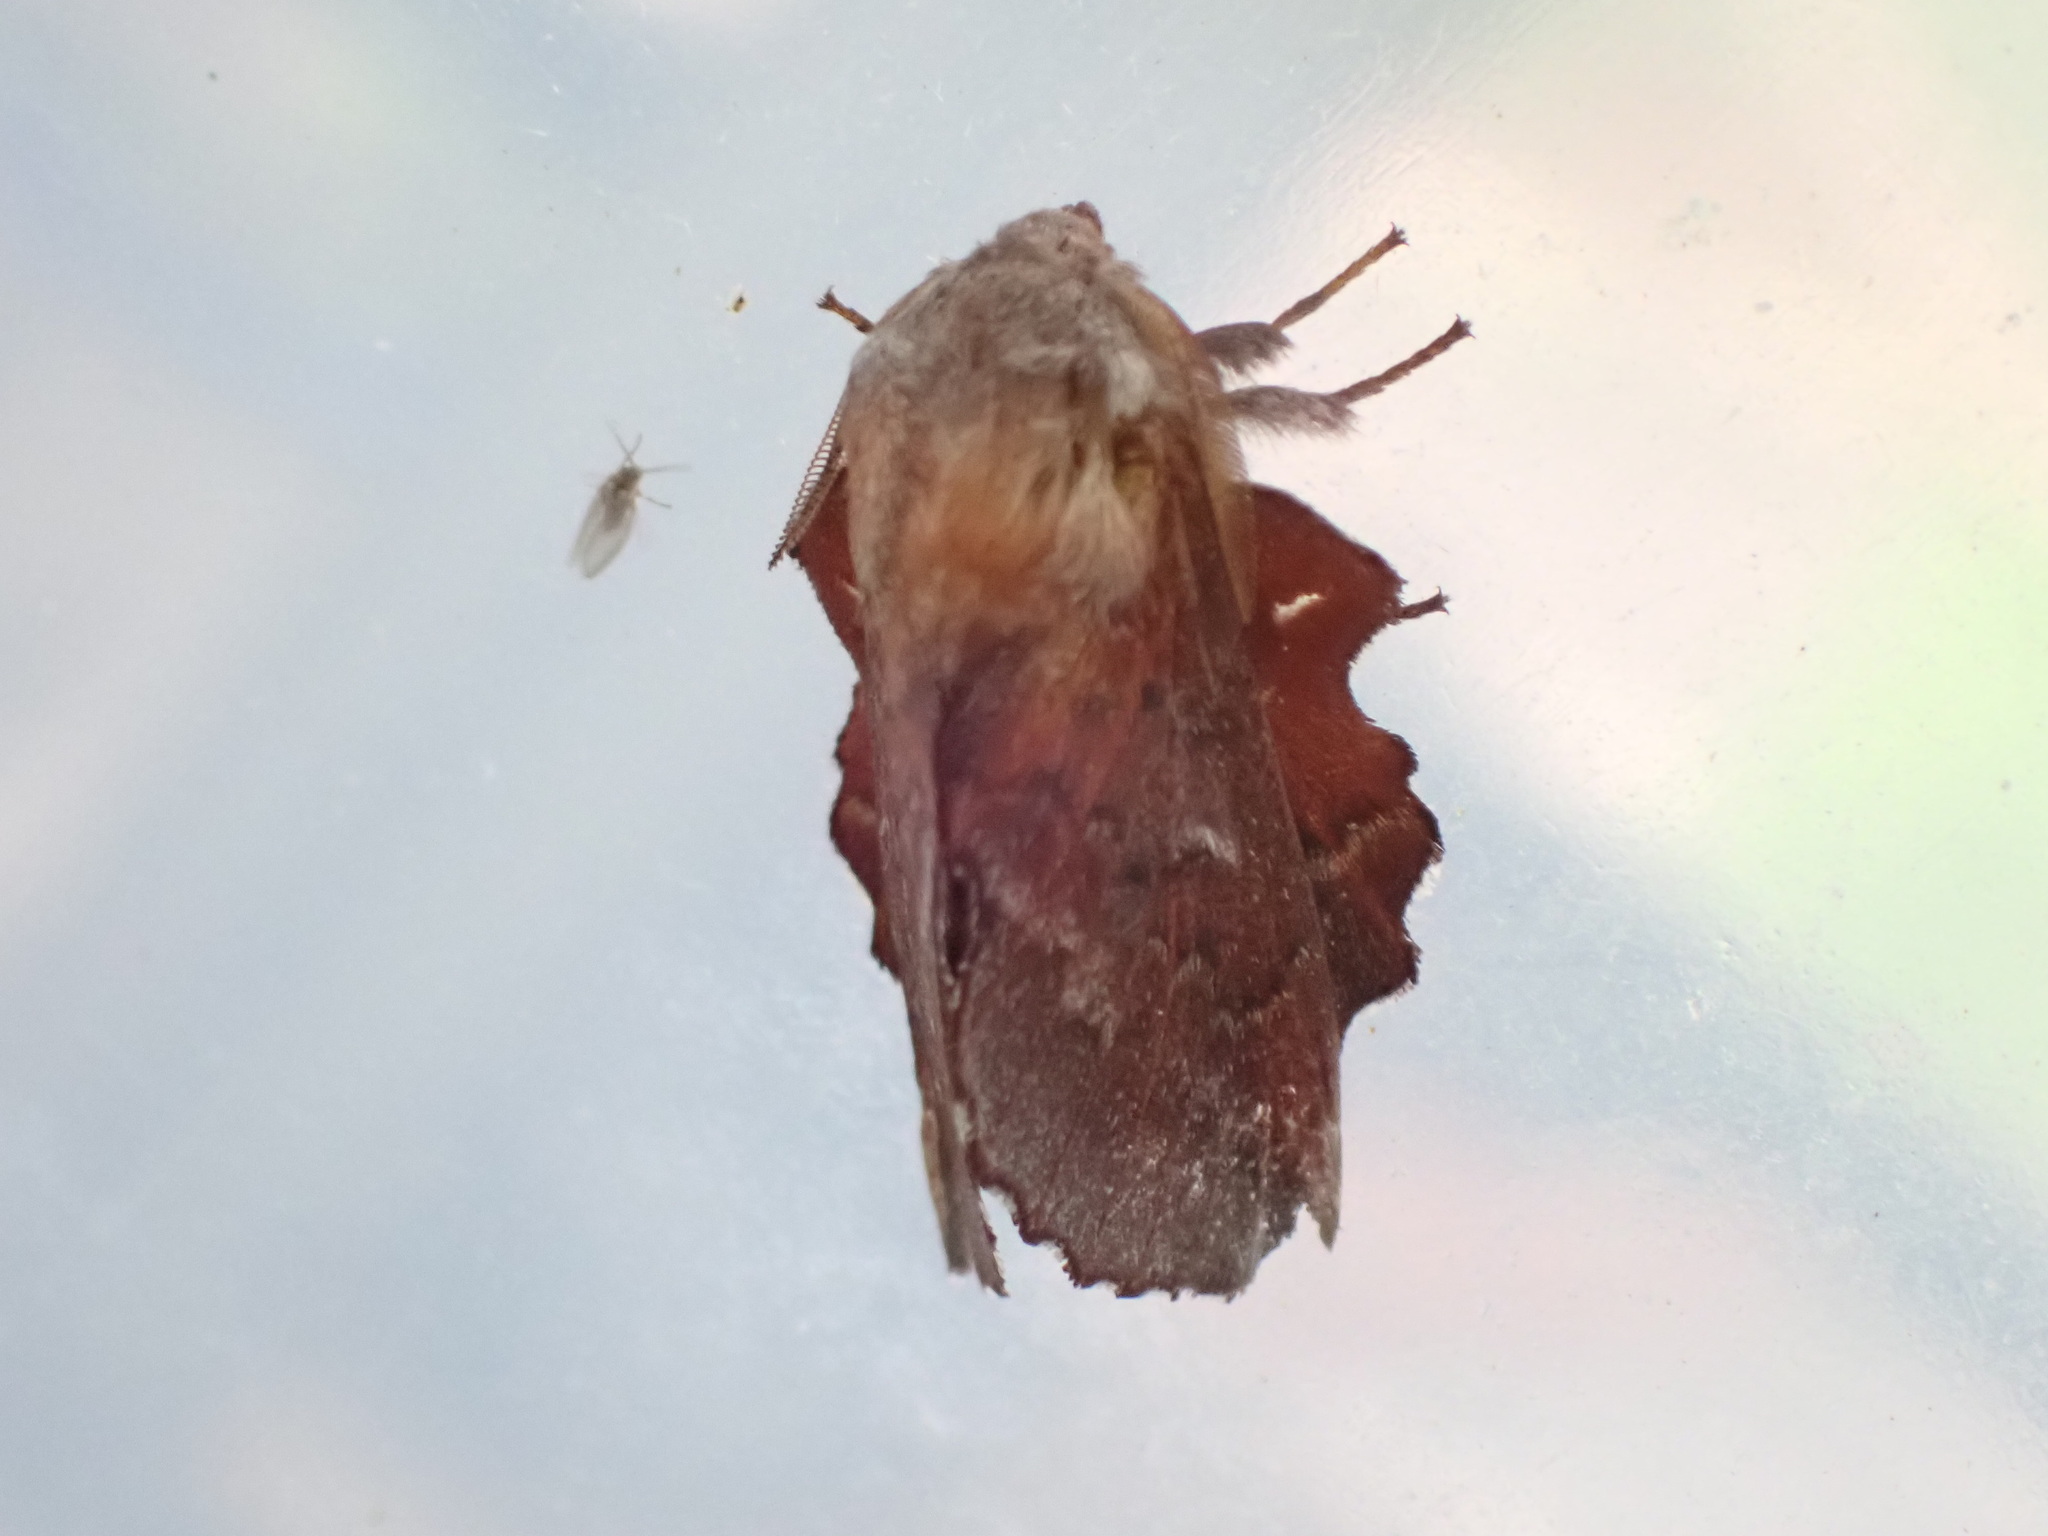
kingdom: Animalia
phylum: Arthropoda
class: Insecta
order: Lepidoptera
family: Lasiocampidae
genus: Phyllodesma
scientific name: Phyllodesma americana
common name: American lappet moth
